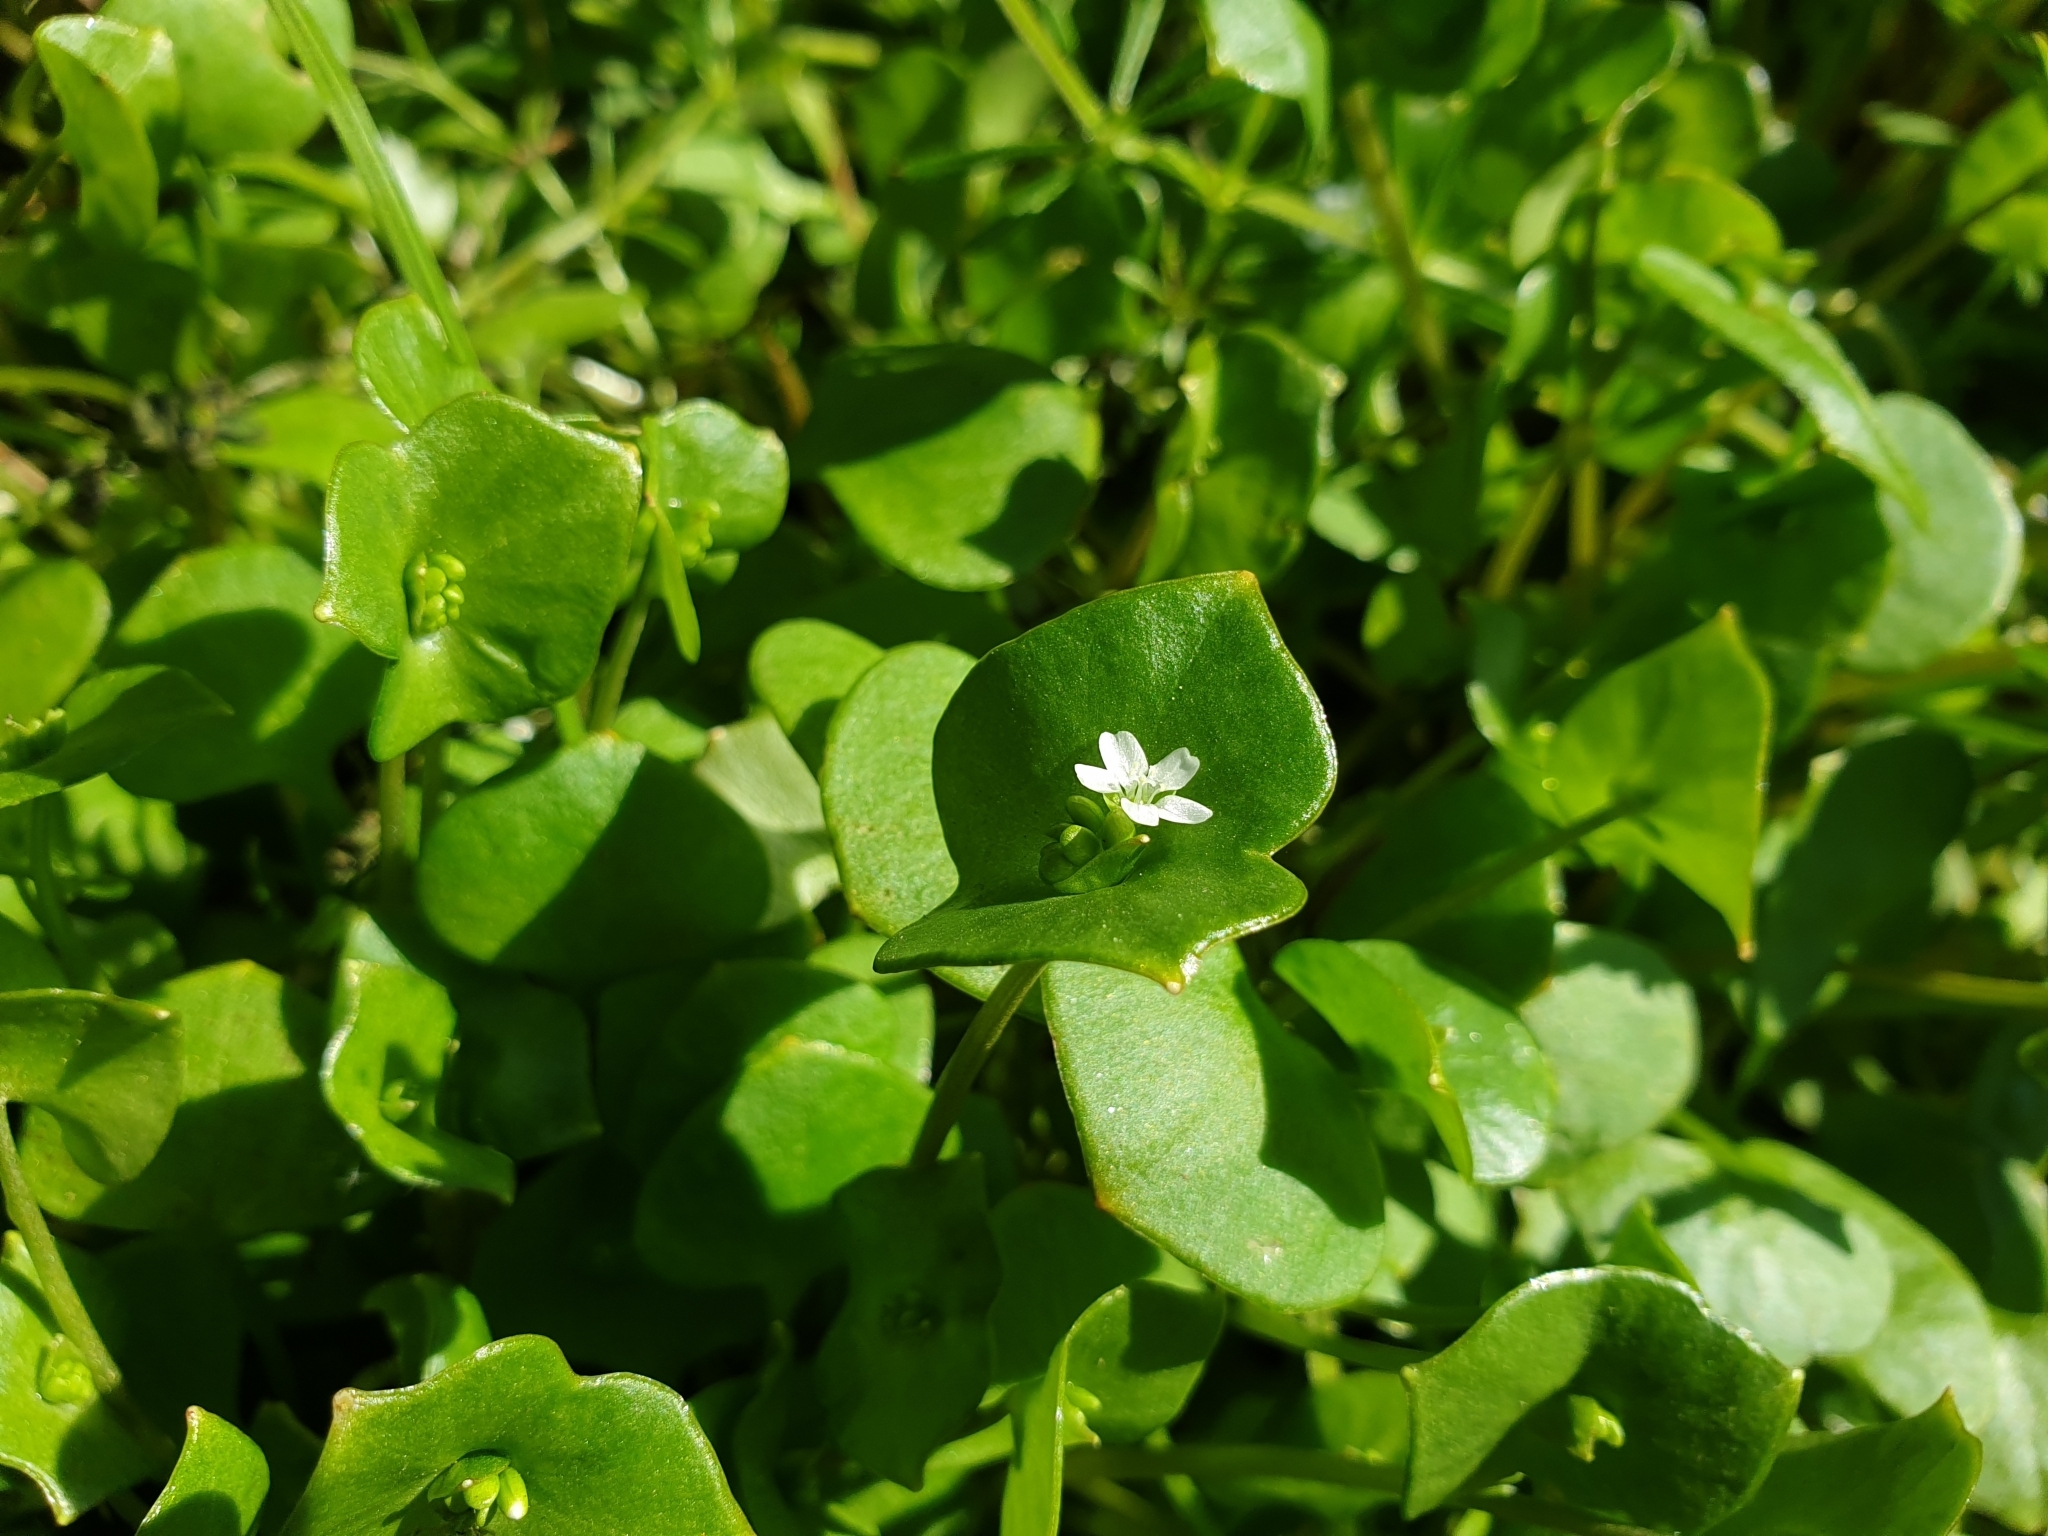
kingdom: Plantae
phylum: Tracheophyta
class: Magnoliopsida
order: Caryophyllales
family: Montiaceae
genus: Claytonia
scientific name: Claytonia perfoliata
